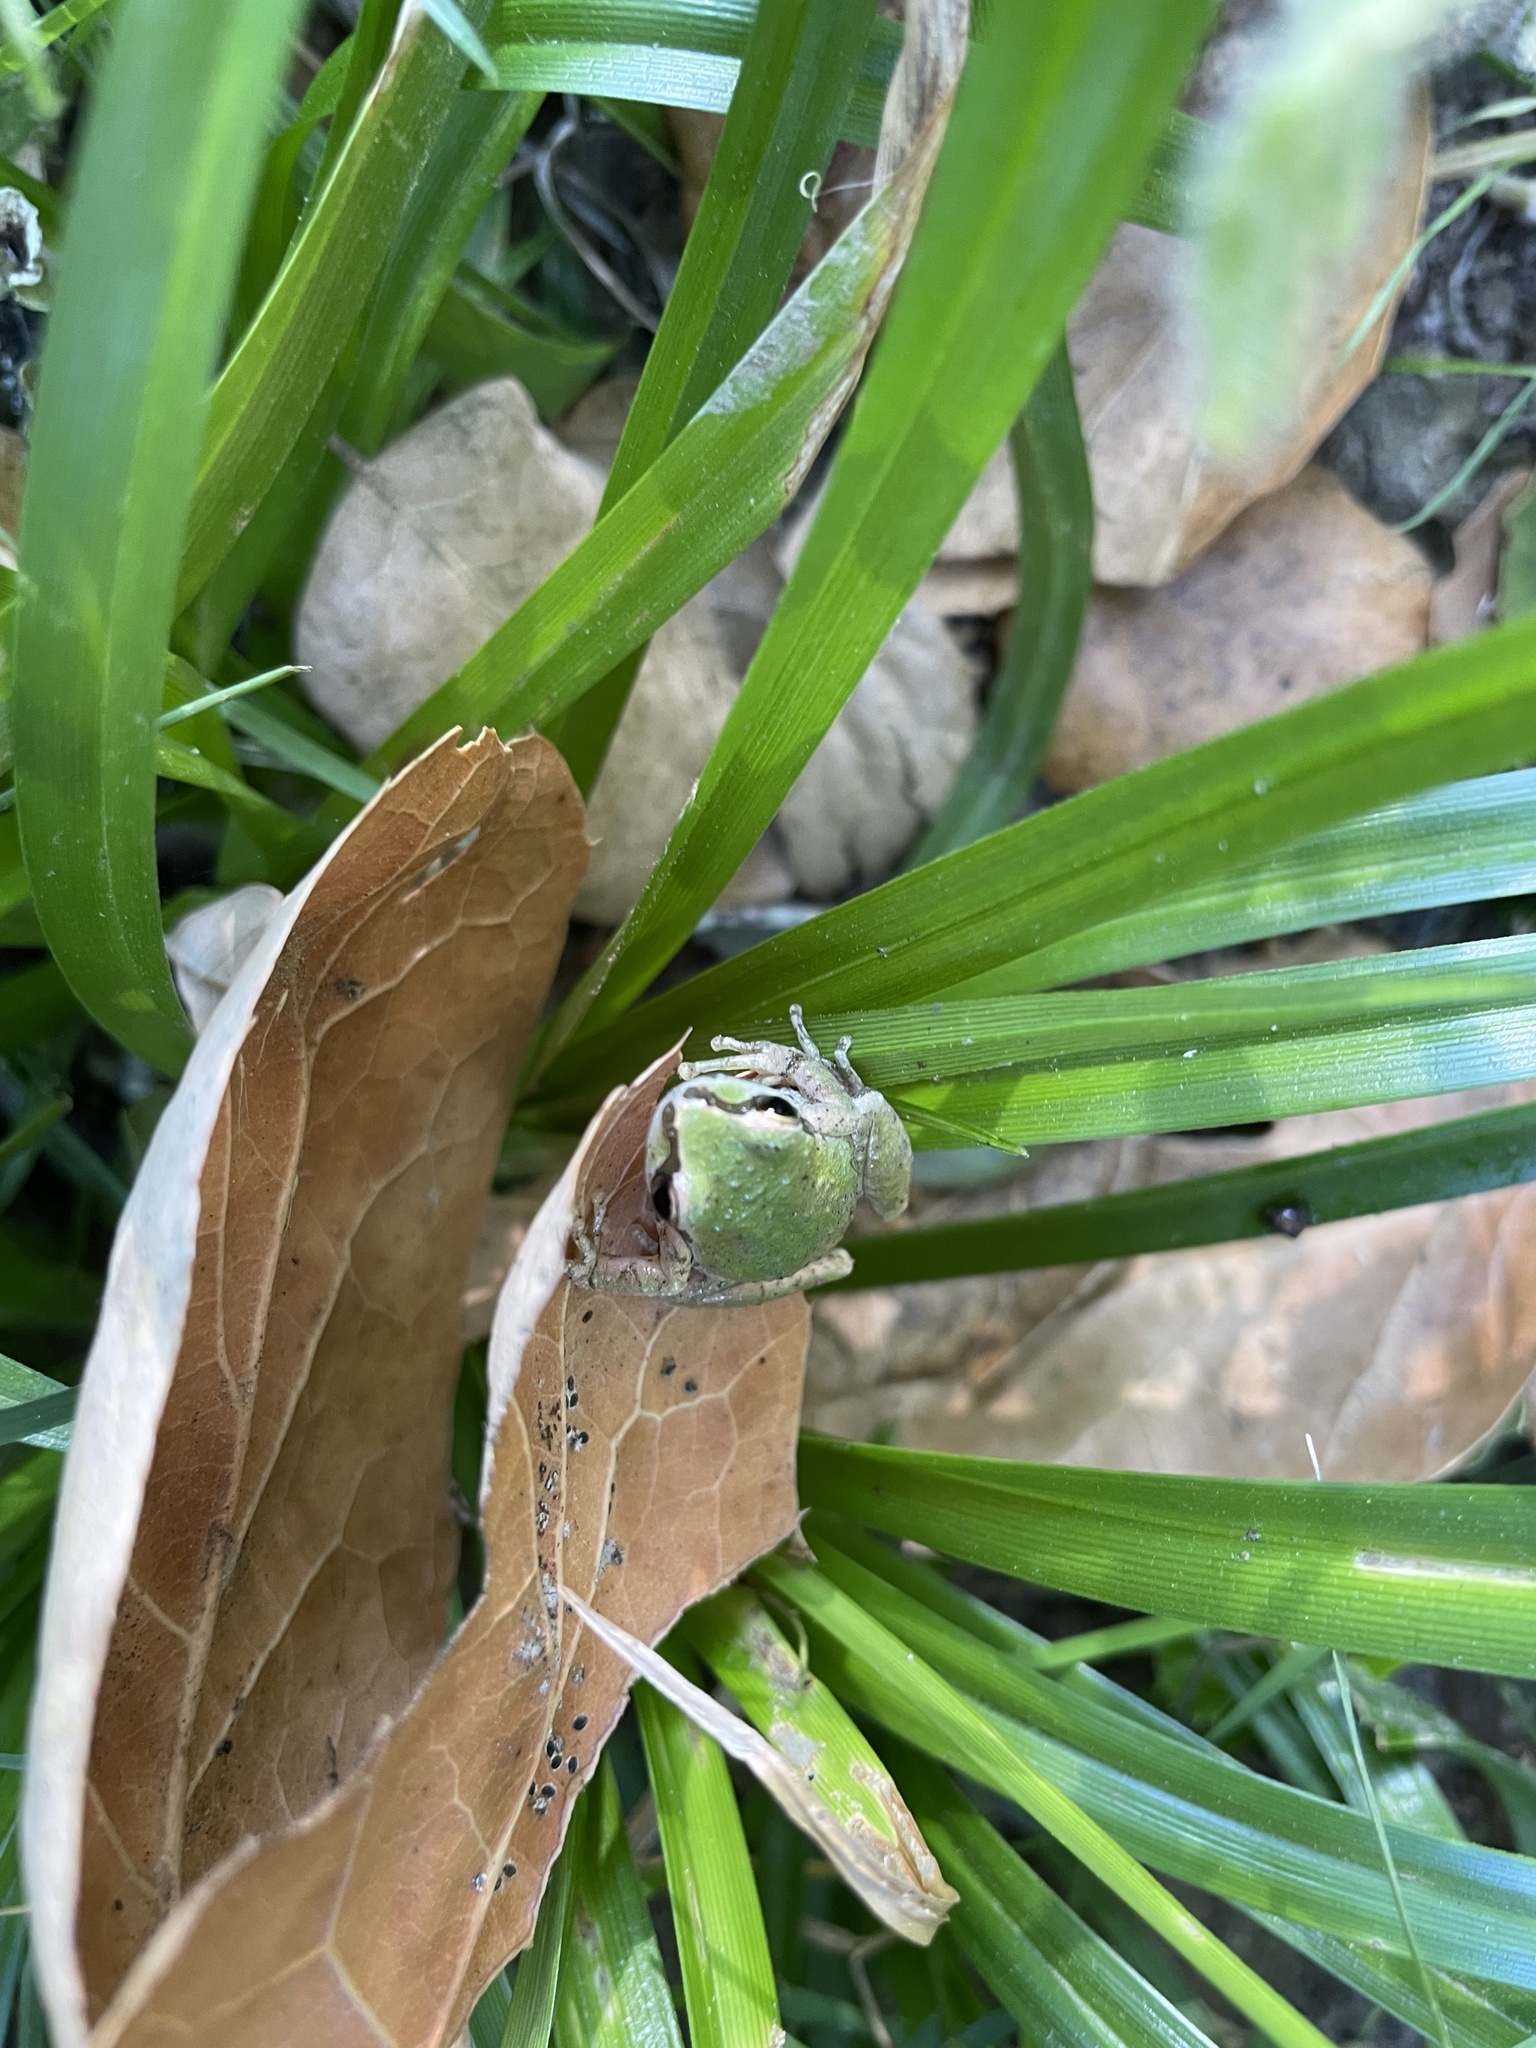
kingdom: Animalia
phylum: Chordata
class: Amphibia
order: Anura
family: Hylidae
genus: Pseudacris
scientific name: Pseudacris regilla
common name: Pacific chorus frog
